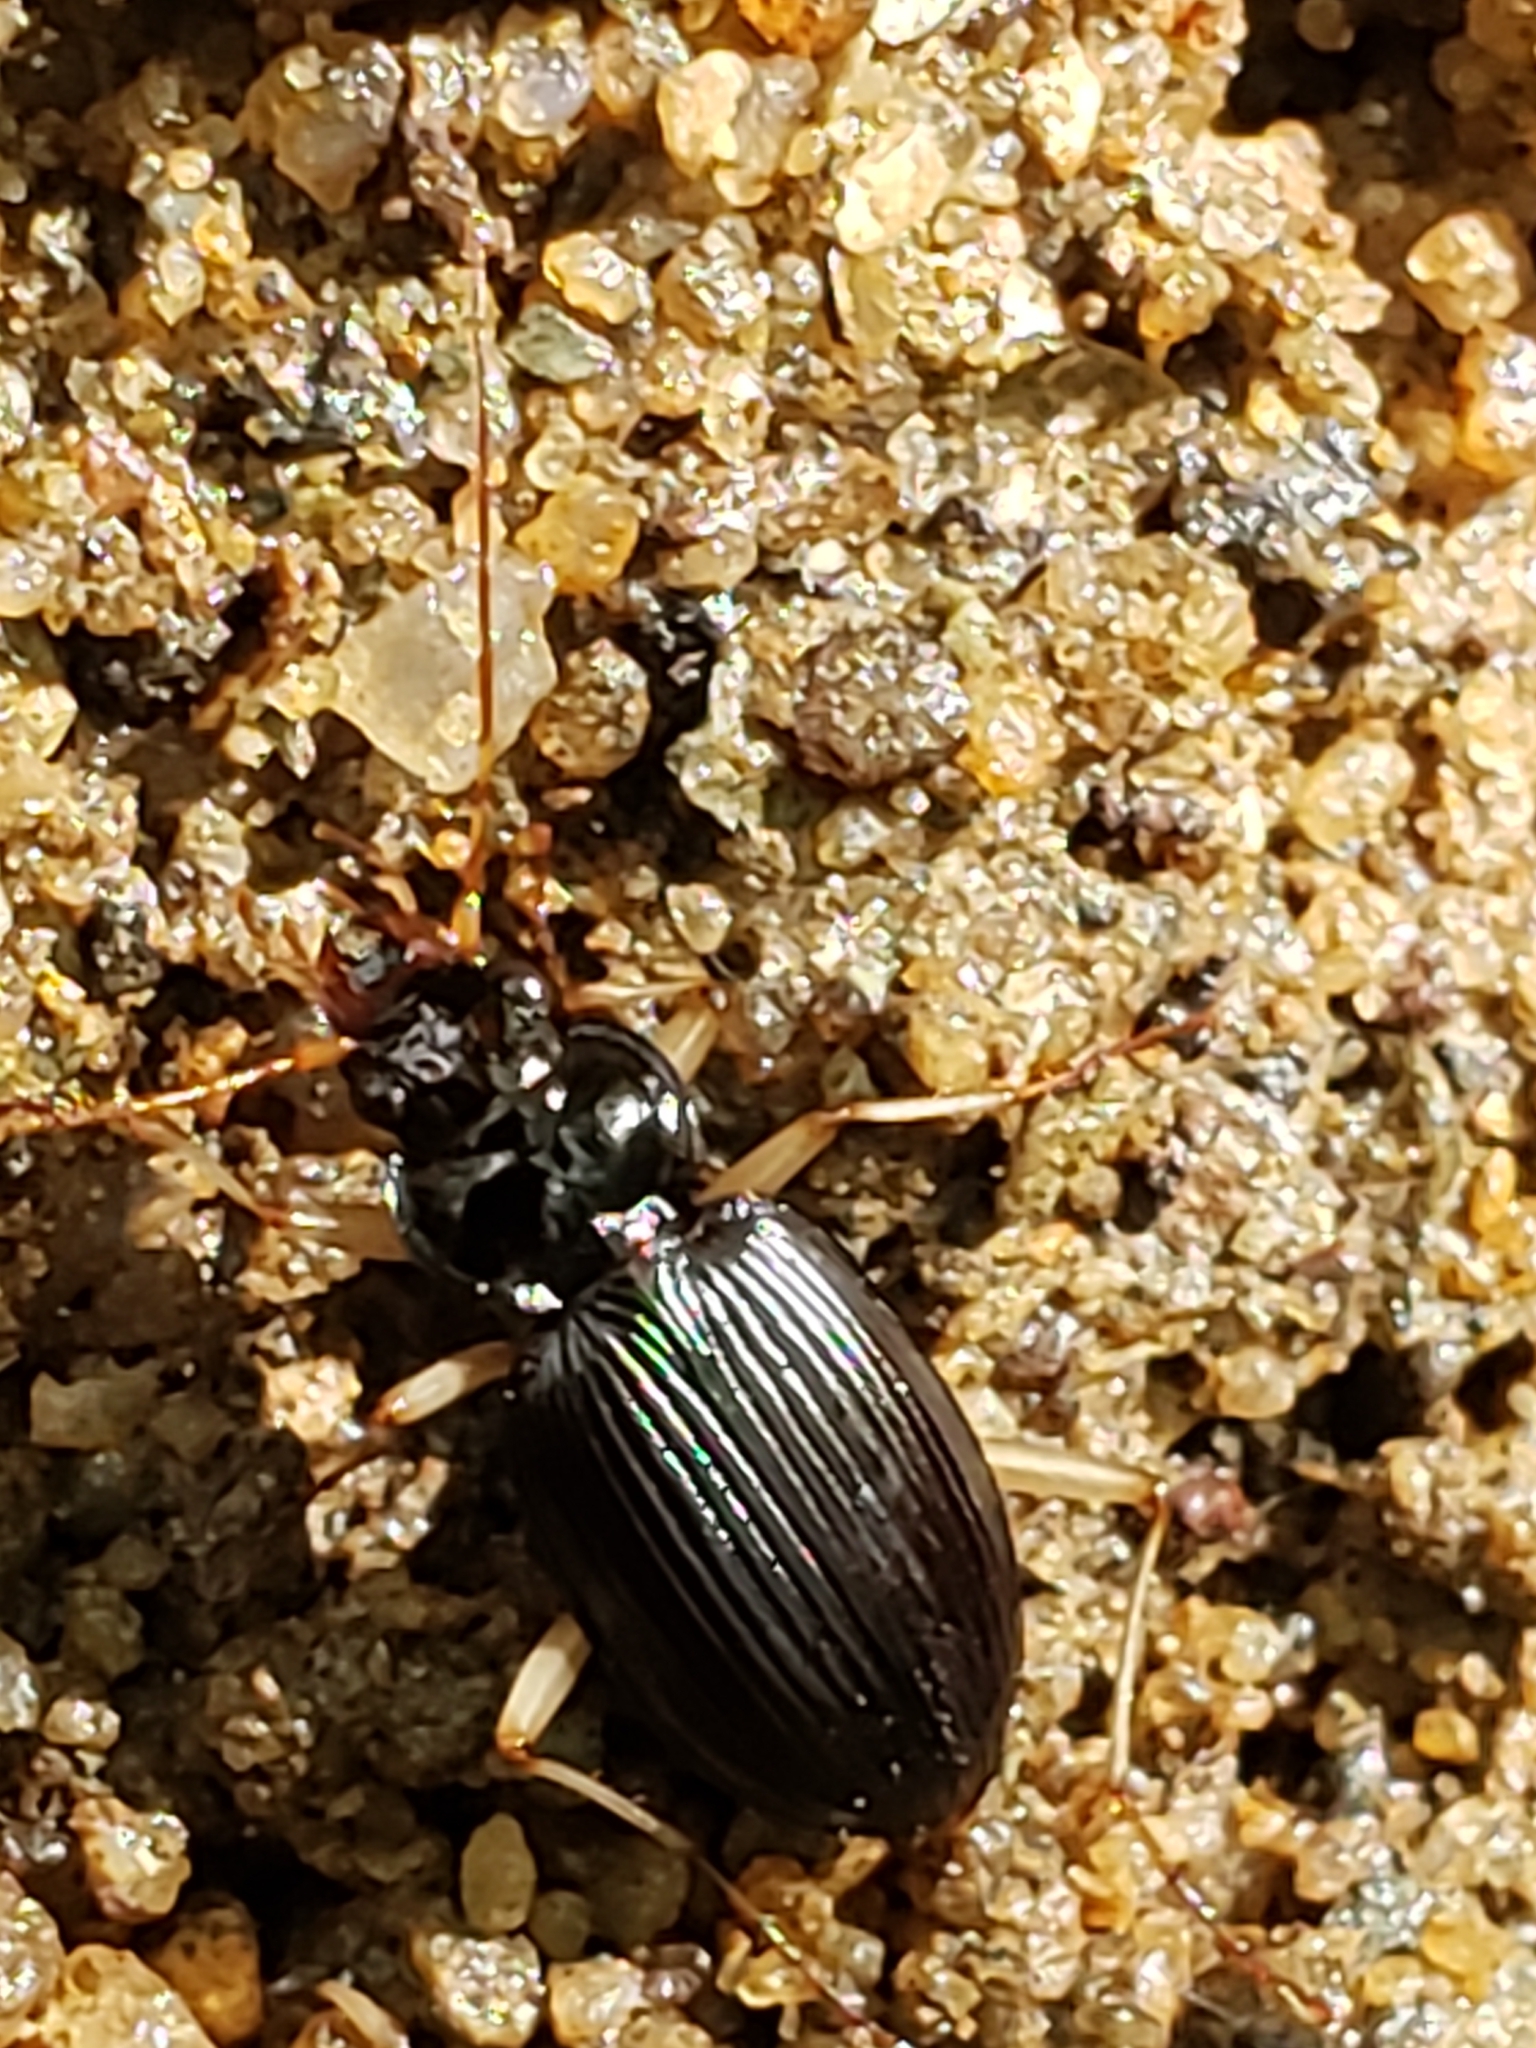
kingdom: Animalia
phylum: Arthropoda
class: Insecta
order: Coleoptera
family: Carabidae
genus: Nebria
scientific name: Nebria pallipes
